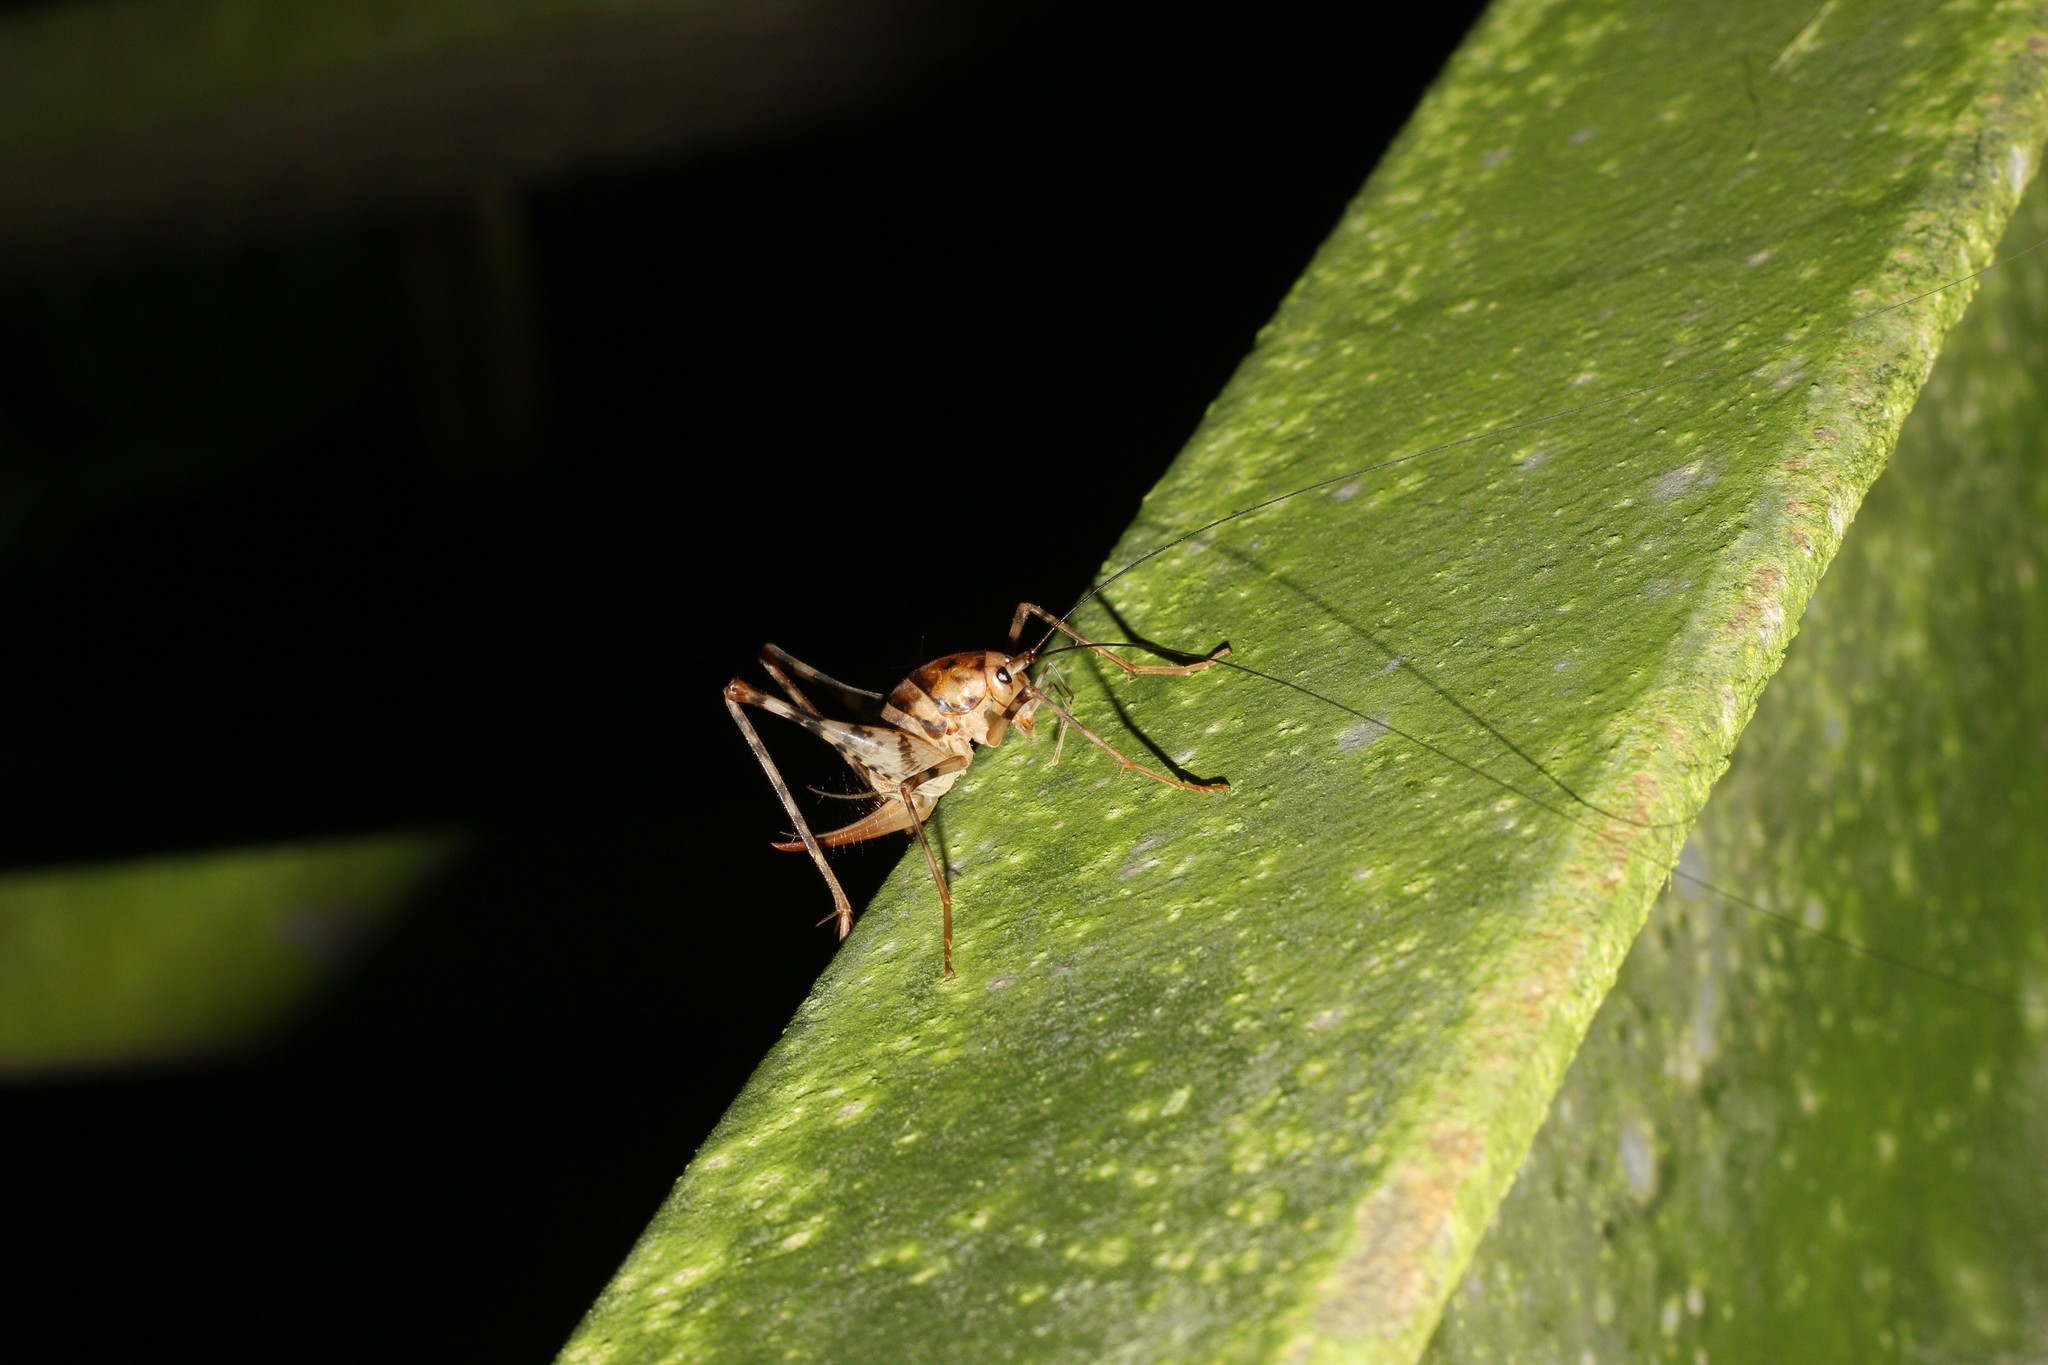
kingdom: Animalia
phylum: Arthropoda
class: Insecta
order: Orthoptera
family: Rhaphidophoridae
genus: Tachycines
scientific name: Tachycines asynamorus
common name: Greenhouse camel cricket
